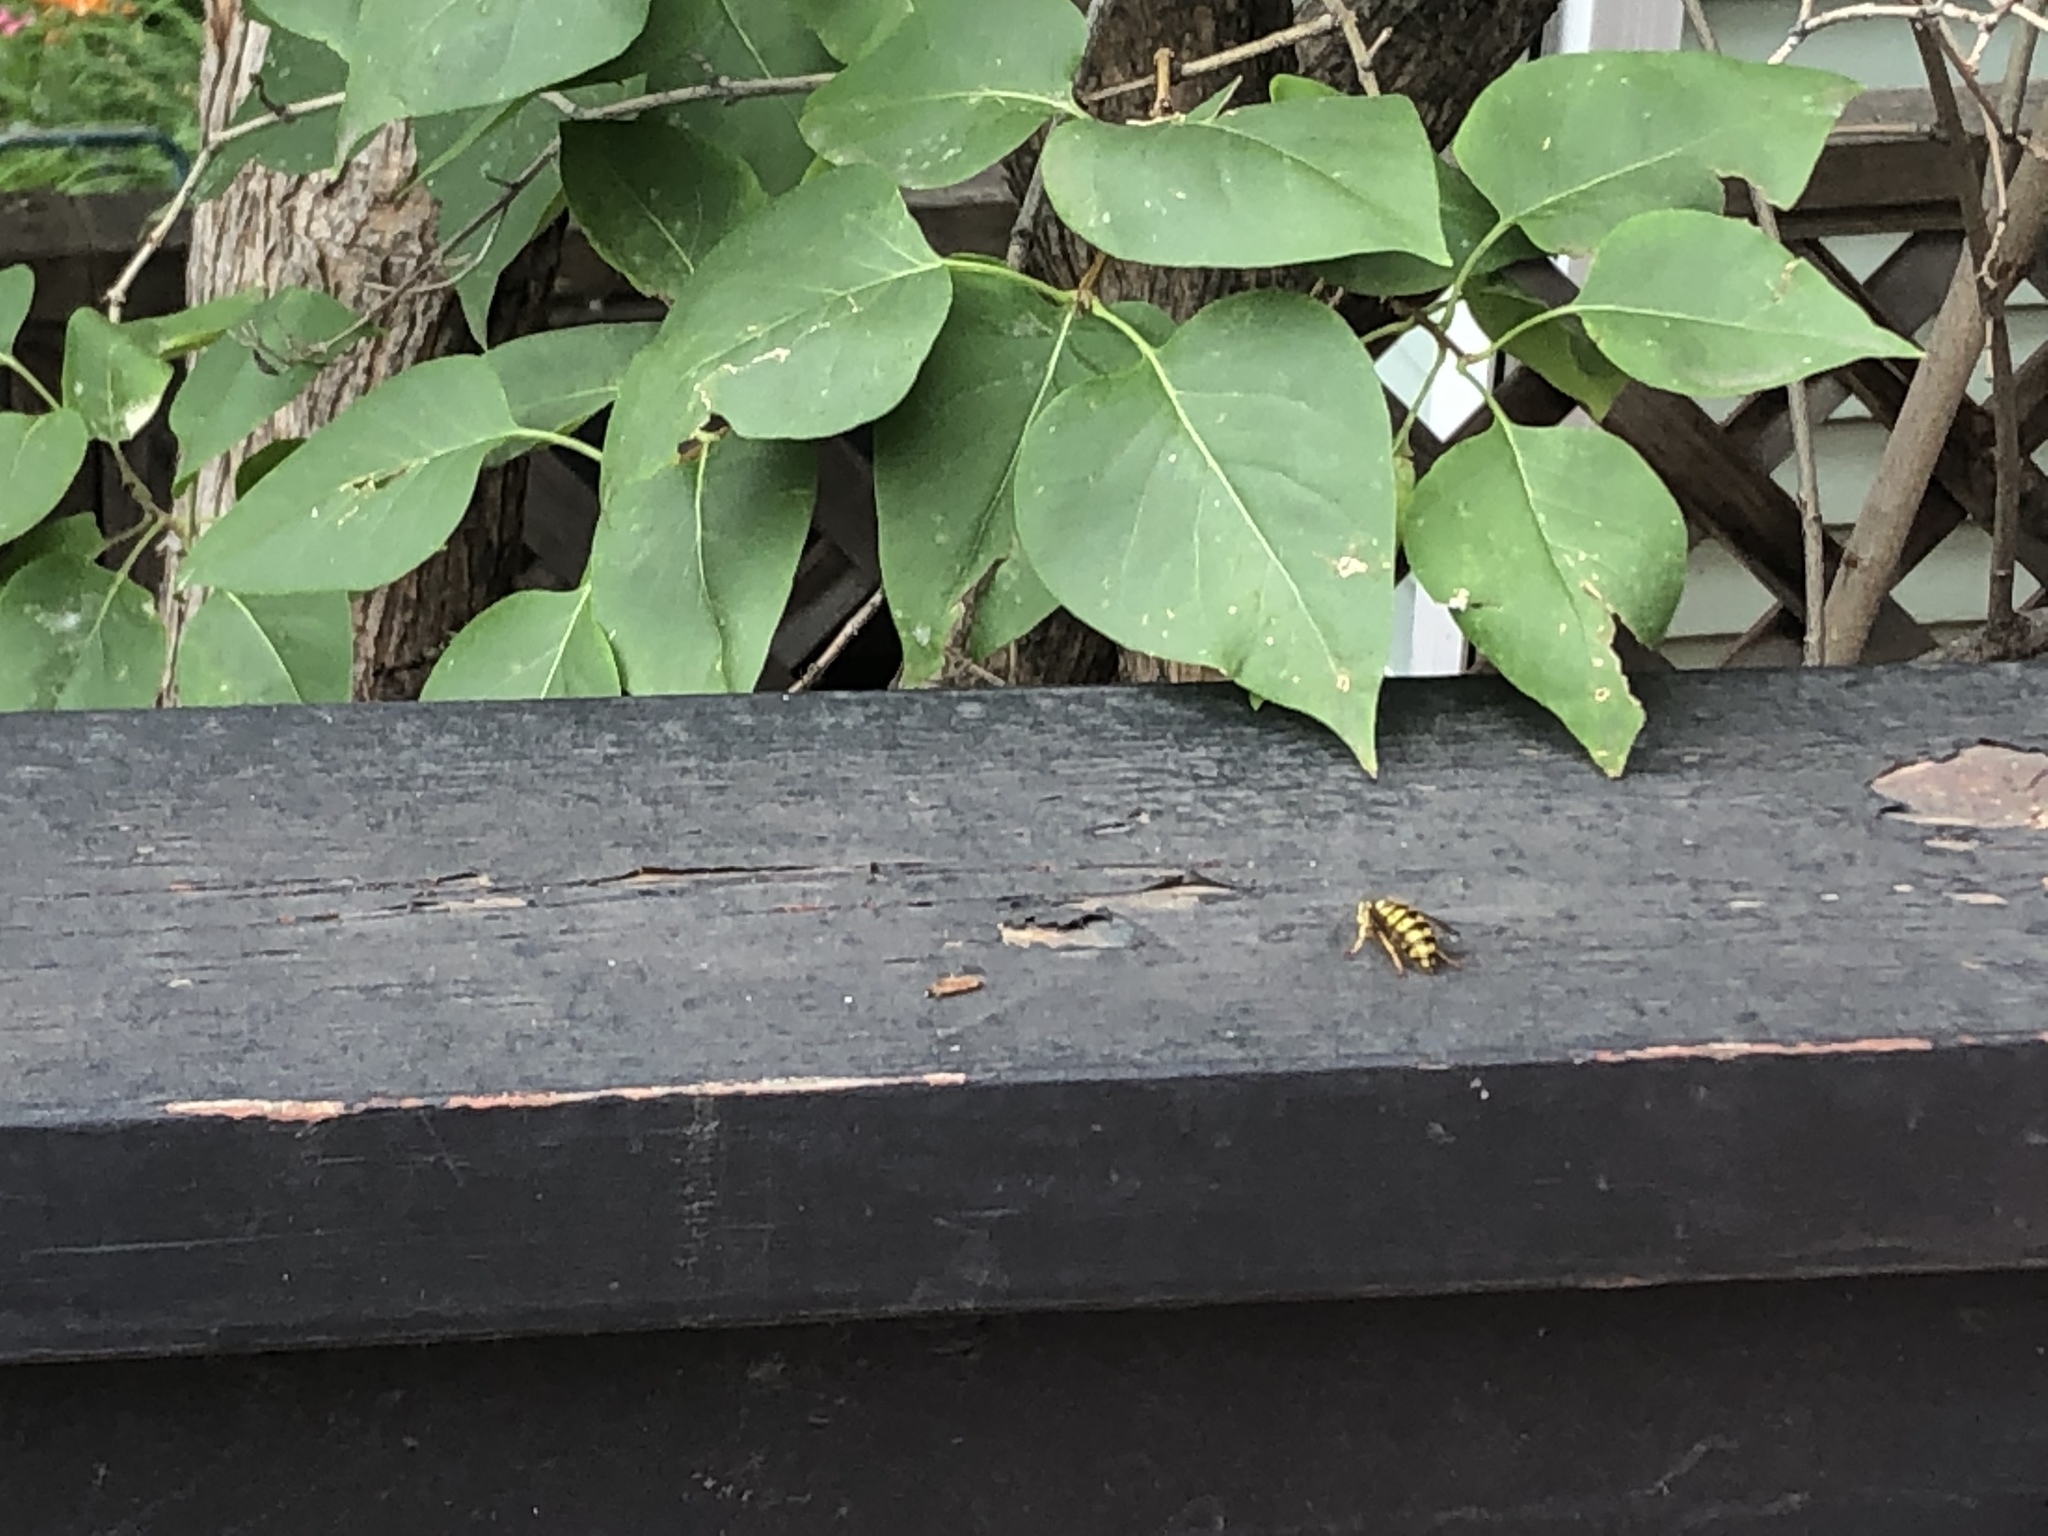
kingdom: Animalia
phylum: Arthropoda
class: Insecta
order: Hymenoptera
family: Vespidae
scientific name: Vespidae
